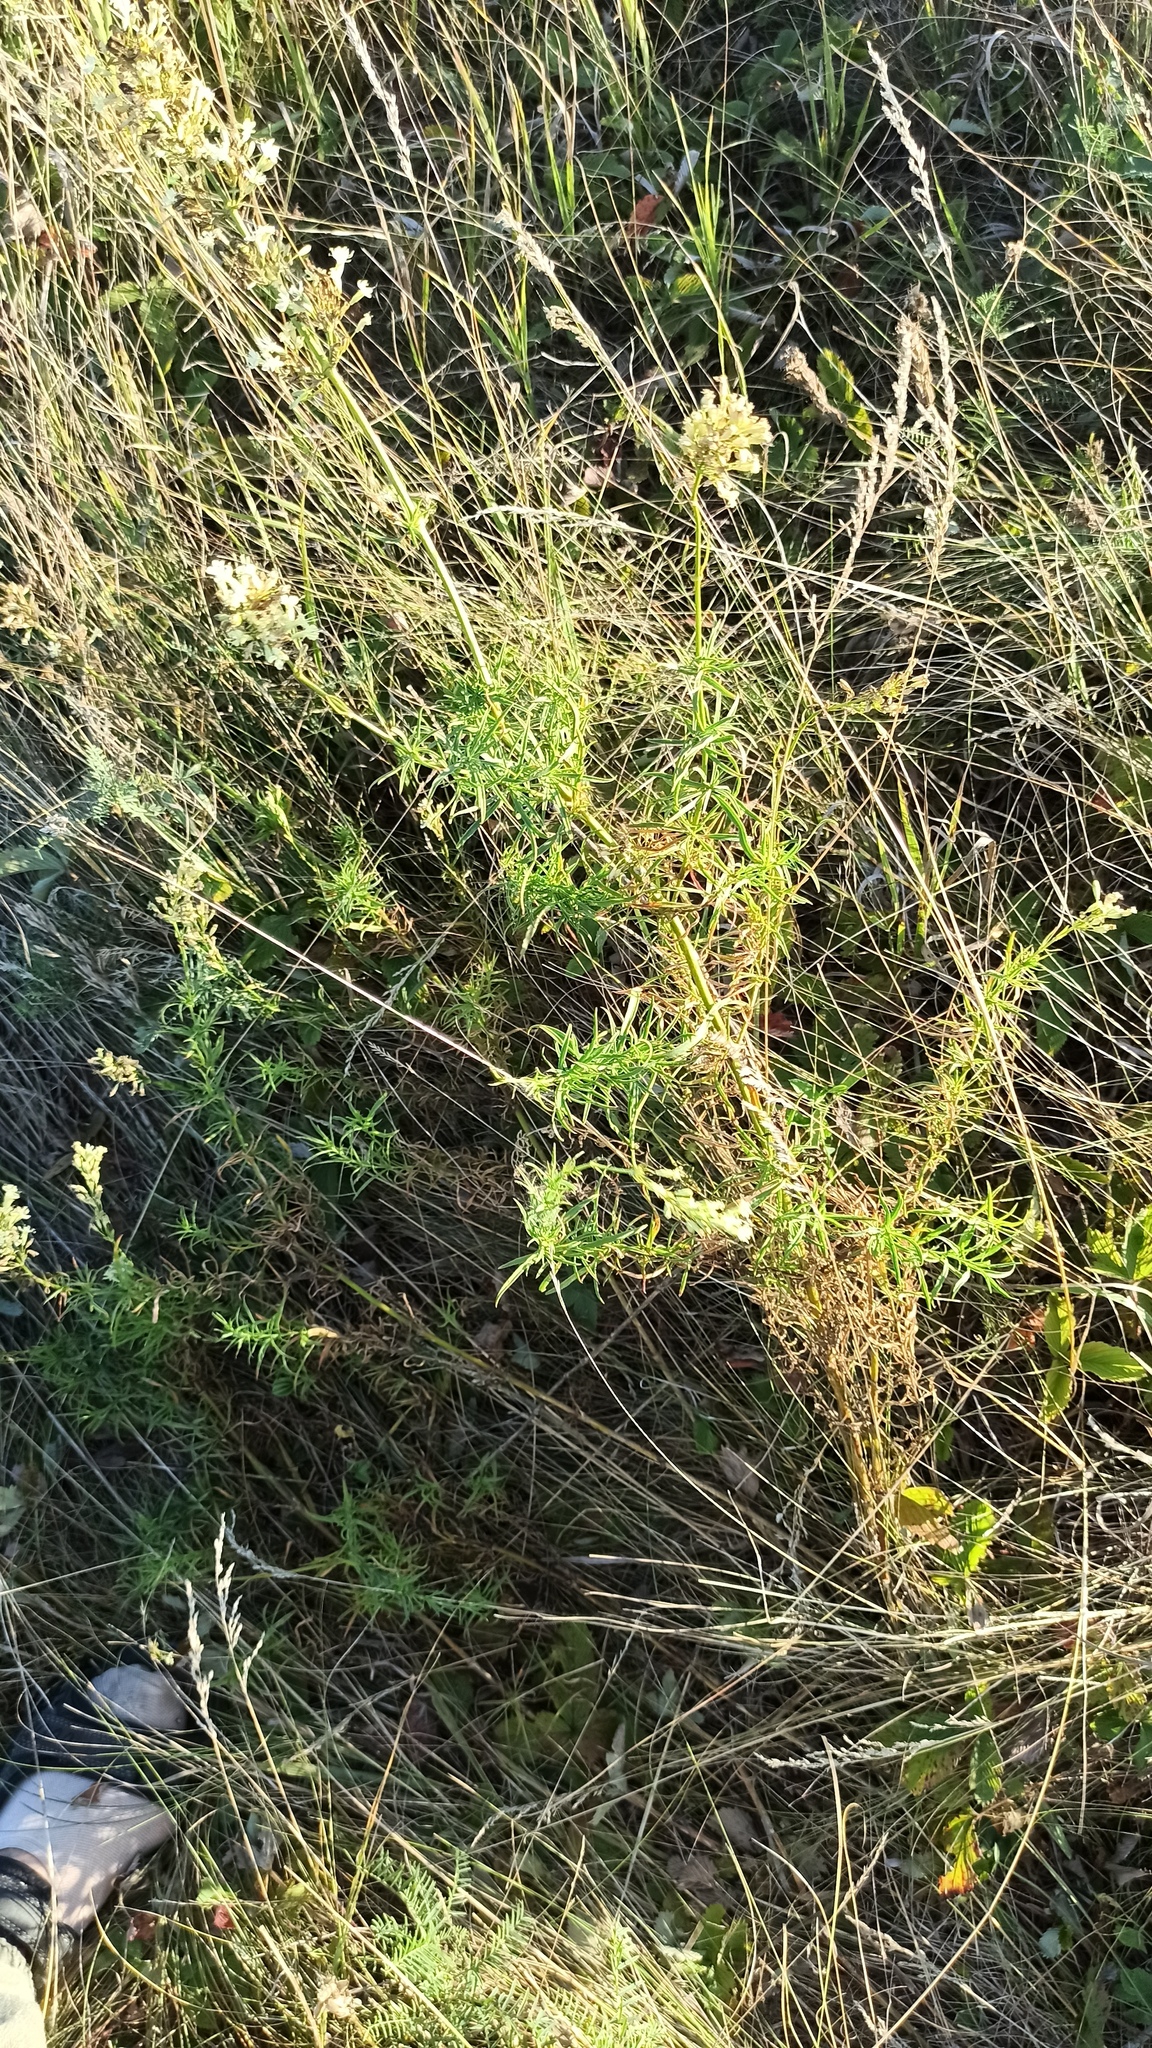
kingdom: Plantae
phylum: Tracheophyta
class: Magnoliopsida
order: Caryophyllales
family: Caryophyllaceae
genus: Silene
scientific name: Silene sibirica
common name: Siberian catchfly
